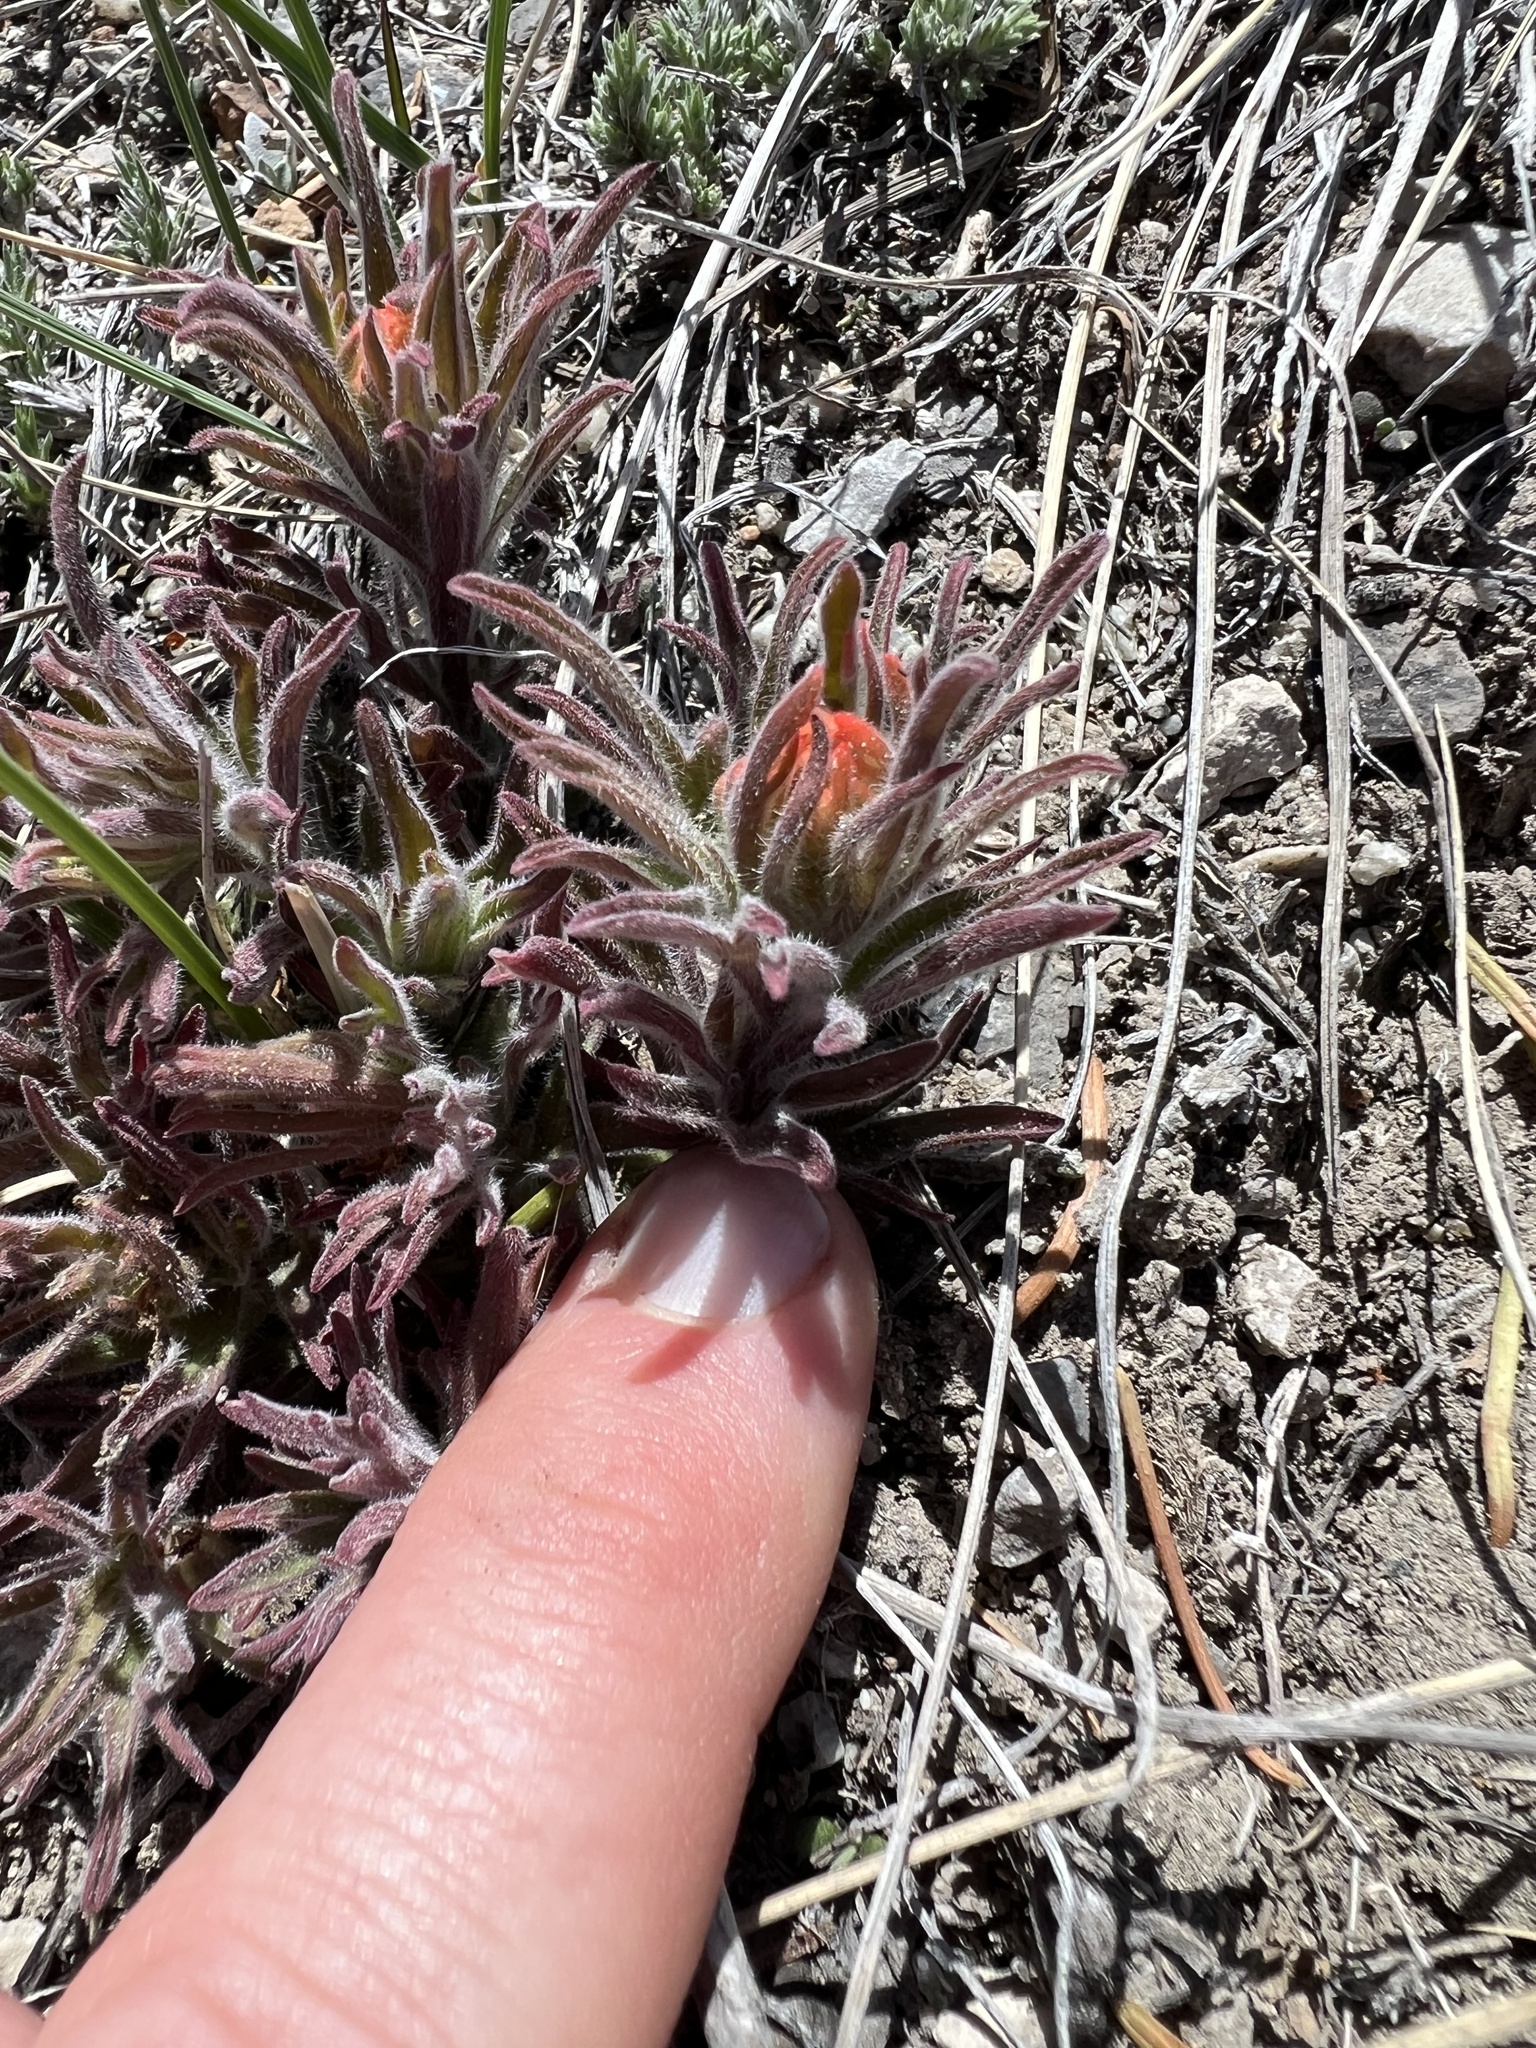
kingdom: Plantae
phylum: Tracheophyta
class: Magnoliopsida
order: Lamiales
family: Orobanchaceae
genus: Castilleja
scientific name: Castilleja chromosa
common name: Desert paintbrush
